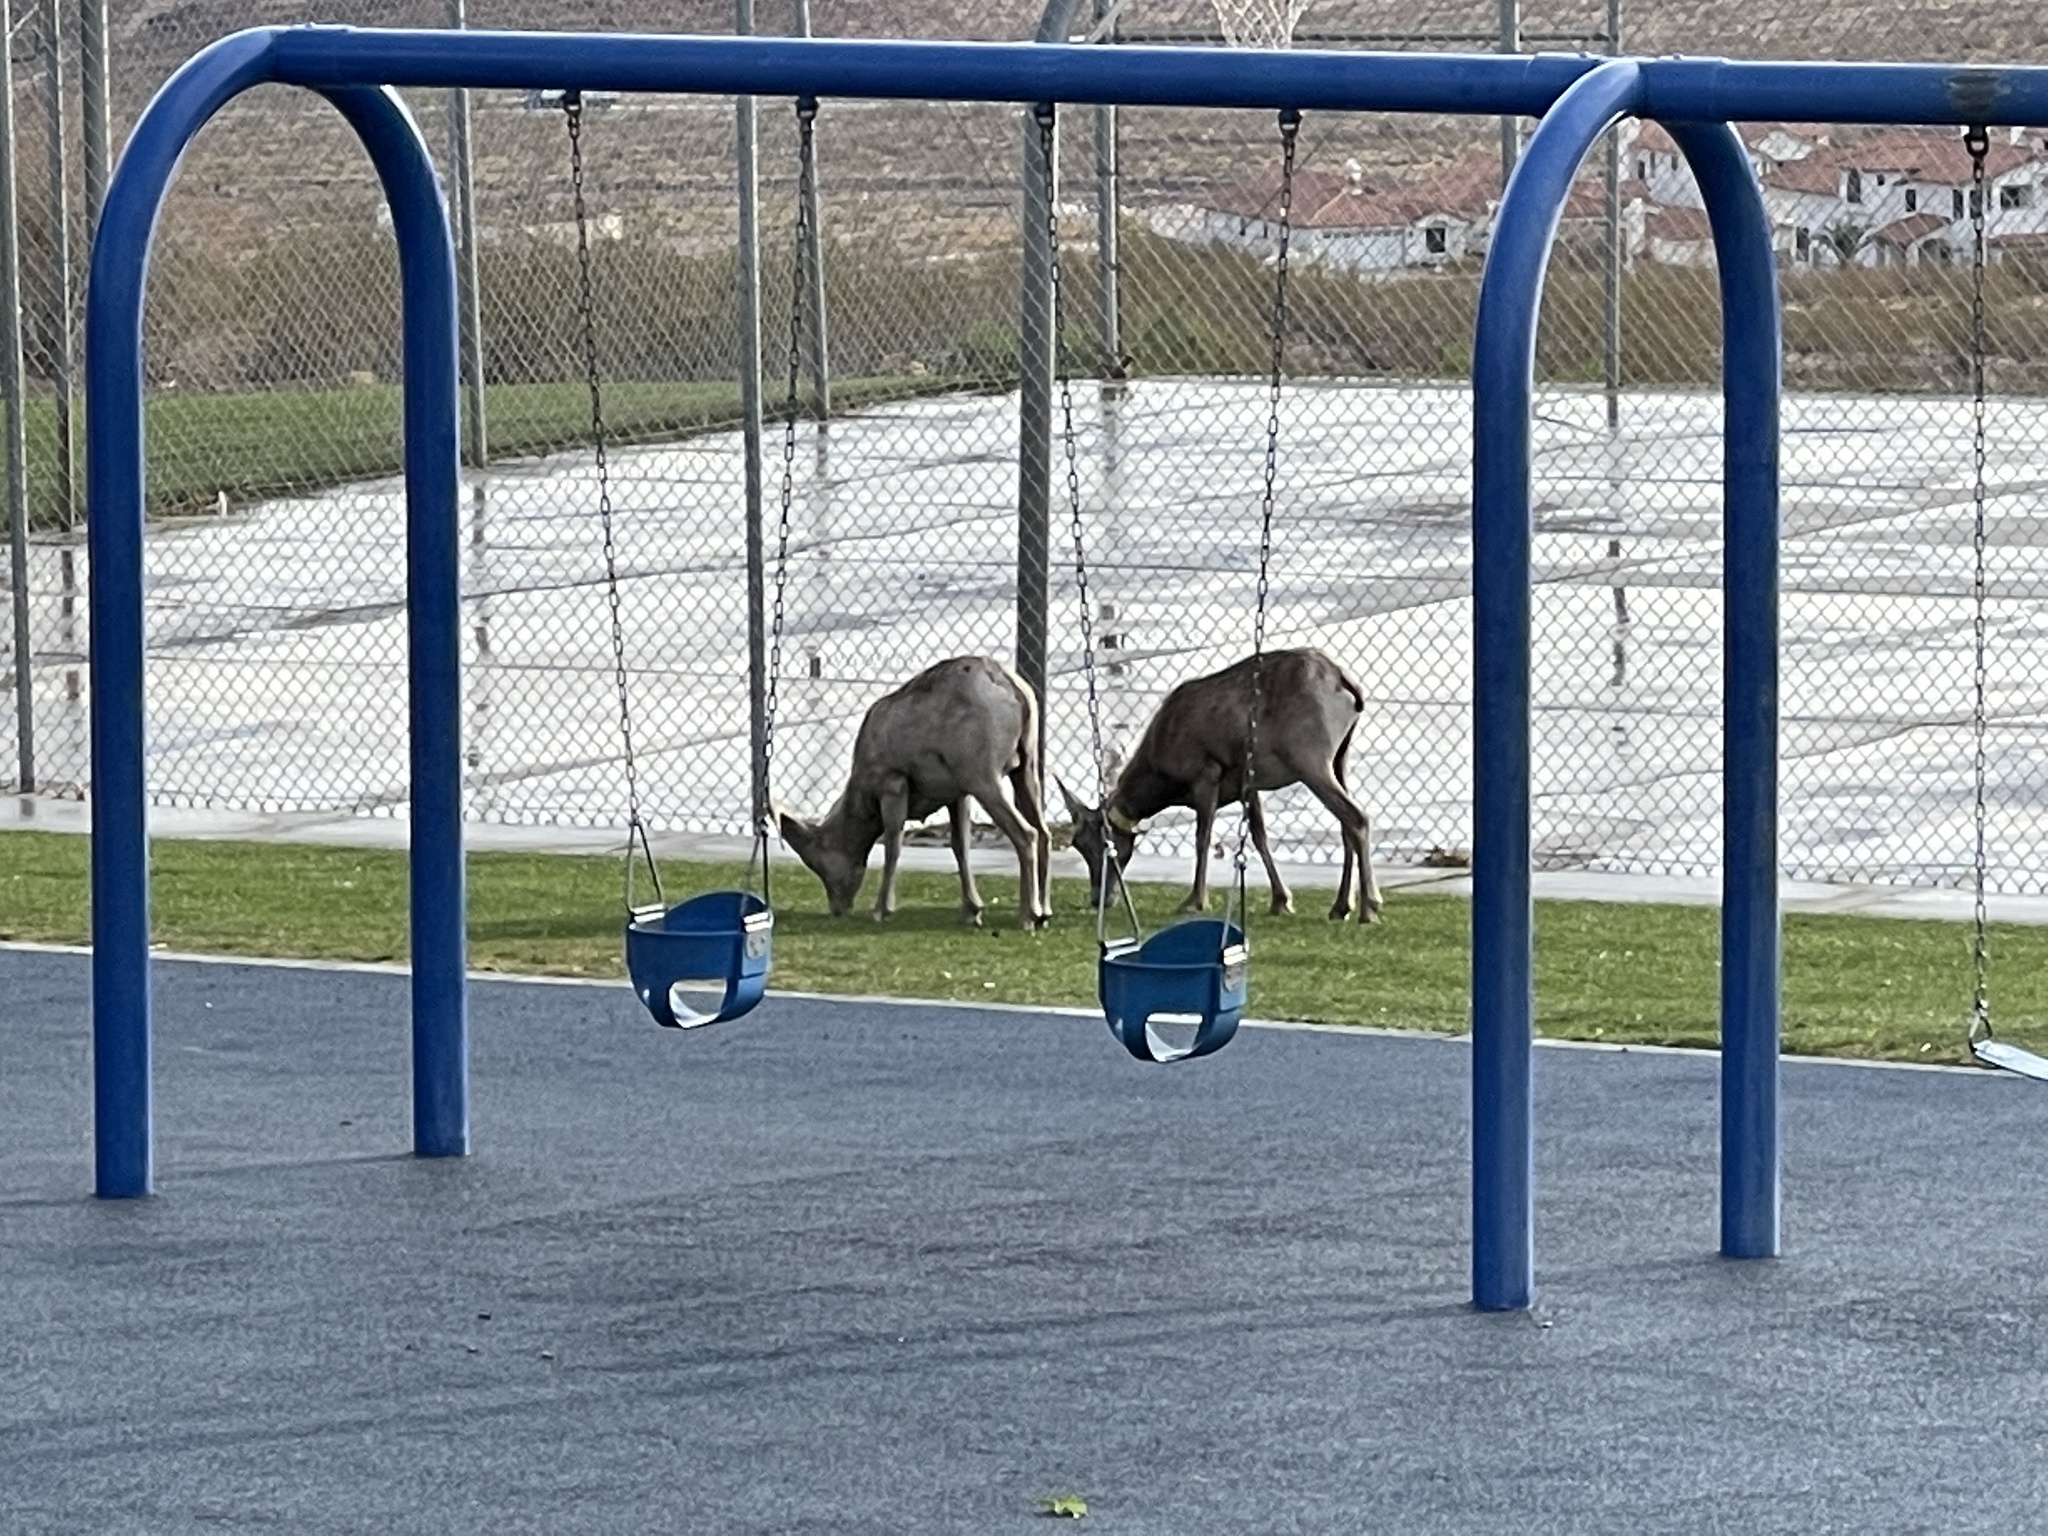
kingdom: Animalia
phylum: Chordata
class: Mammalia
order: Artiodactyla
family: Bovidae
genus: Ovis
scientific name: Ovis canadensis
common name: Bighorn sheep
